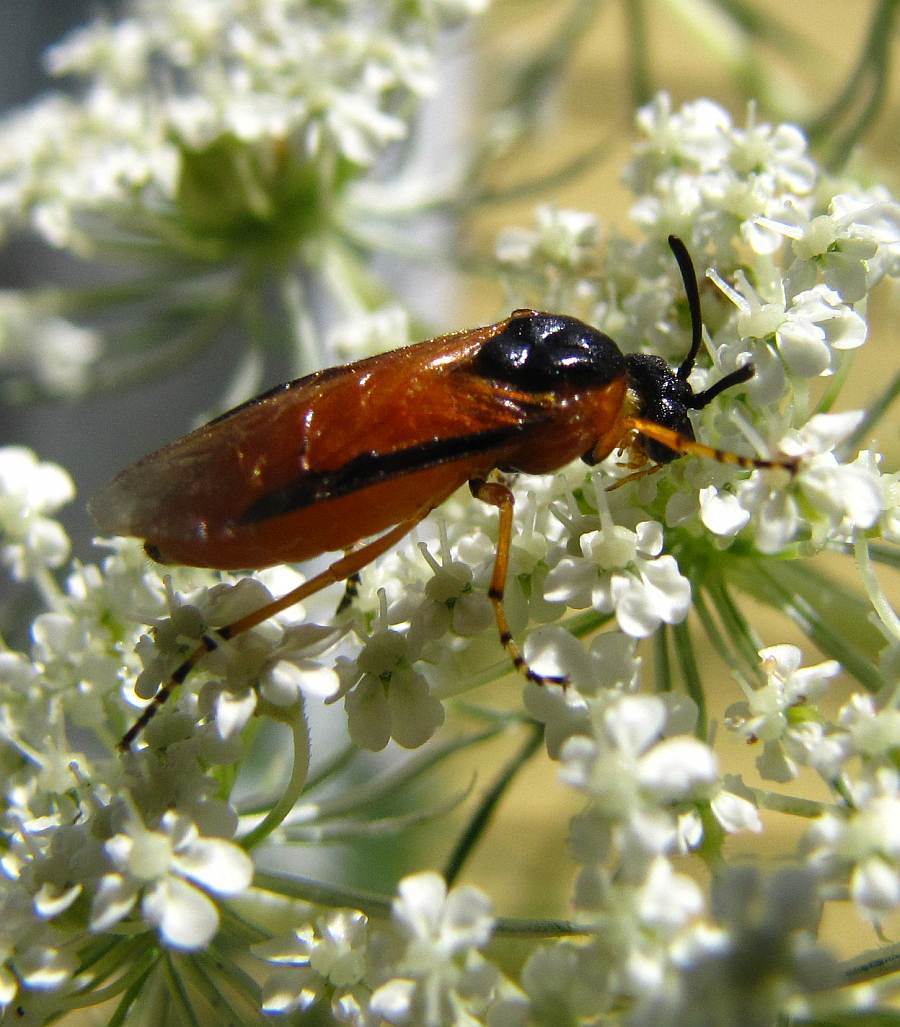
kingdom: Animalia
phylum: Arthropoda
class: Insecta
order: Hymenoptera
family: Argidae
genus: Arge
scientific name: Arge ochropus
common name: Argid sawfly
